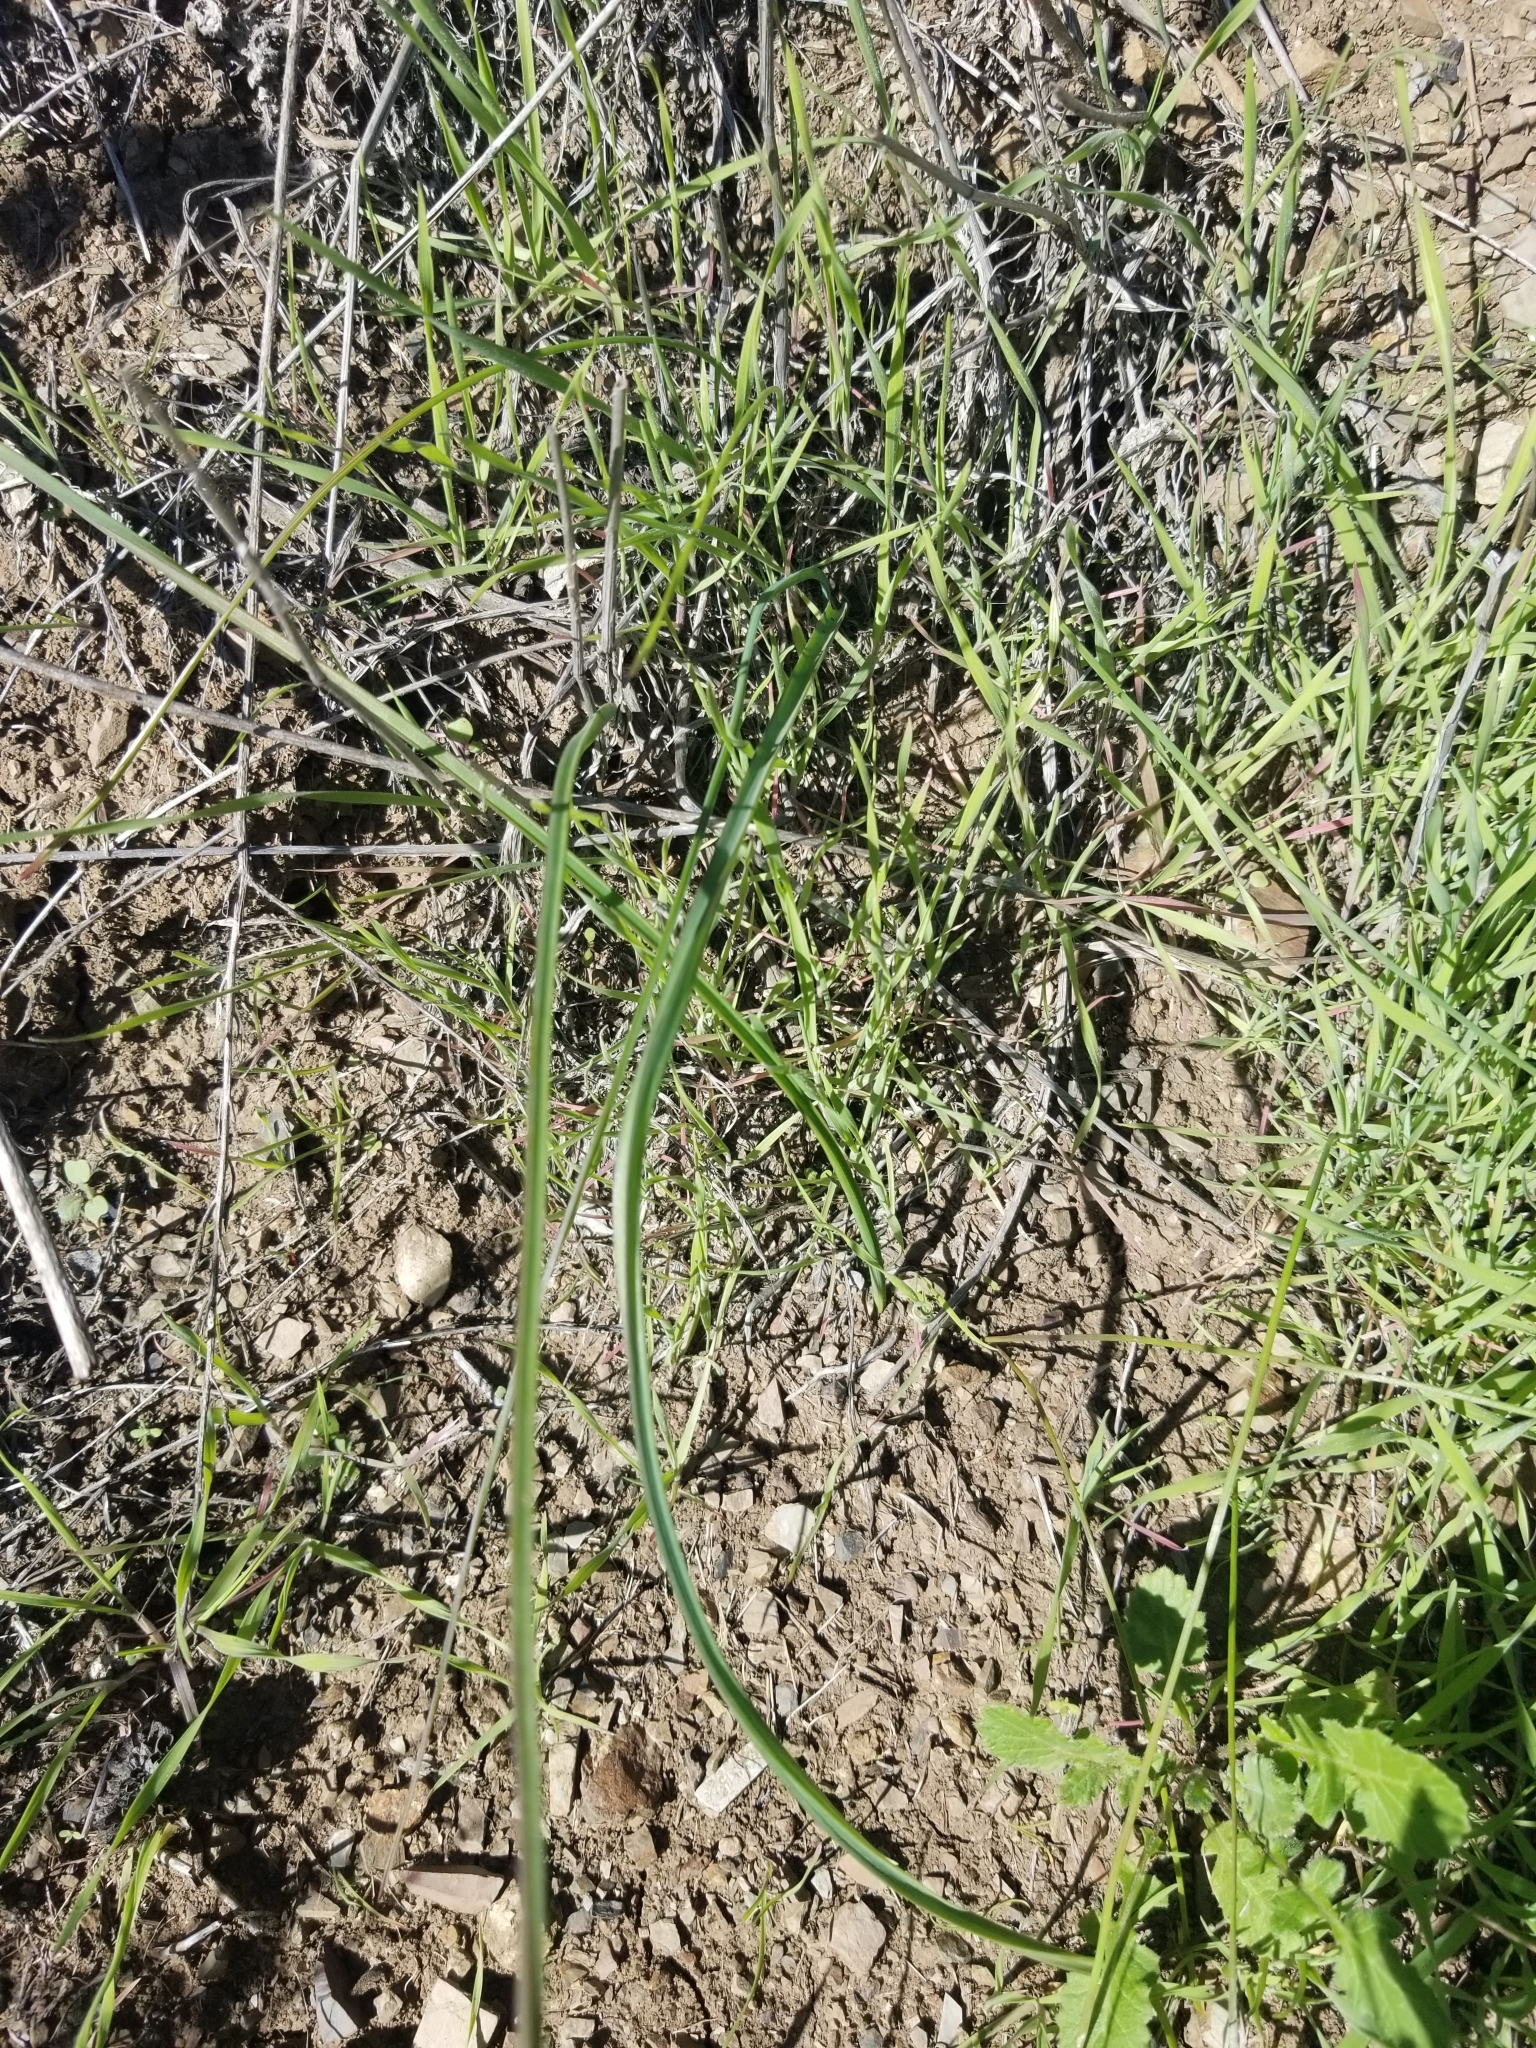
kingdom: Plantae
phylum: Tracheophyta
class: Liliopsida
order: Asparagales
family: Asparagaceae
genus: Dipterostemon
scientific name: Dipterostemon capitatus
